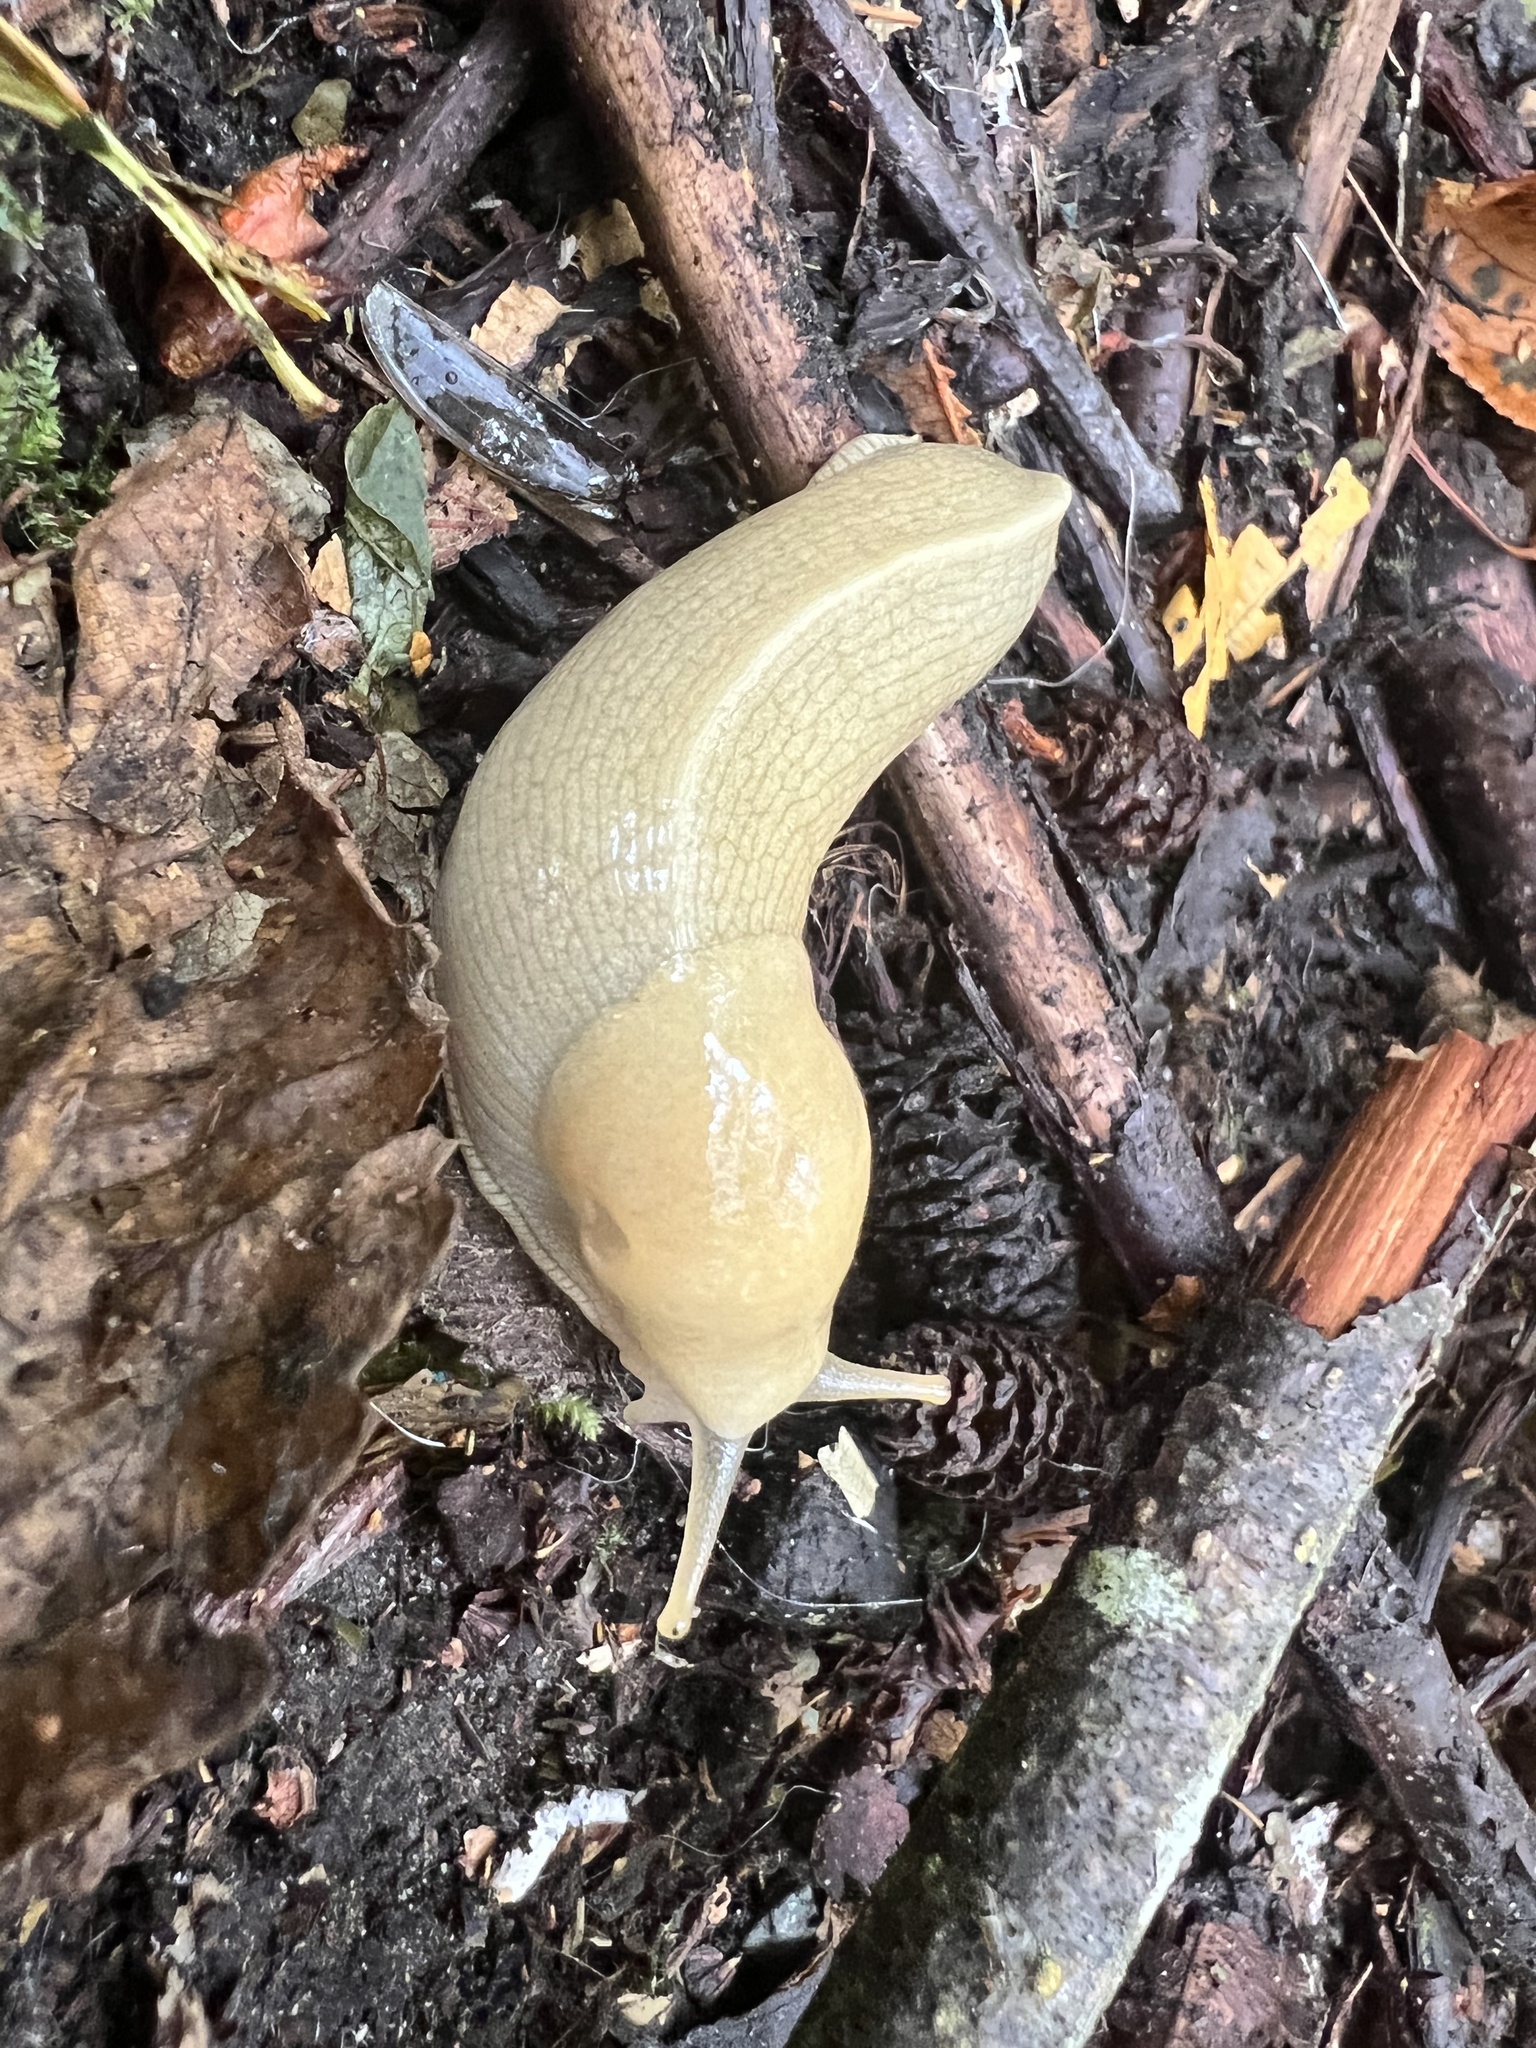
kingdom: Animalia
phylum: Mollusca
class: Gastropoda
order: Stylommatophora
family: Ariolimacidae
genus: Ariolimax
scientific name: Ariolimax columbianus
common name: Pacific banana slug
